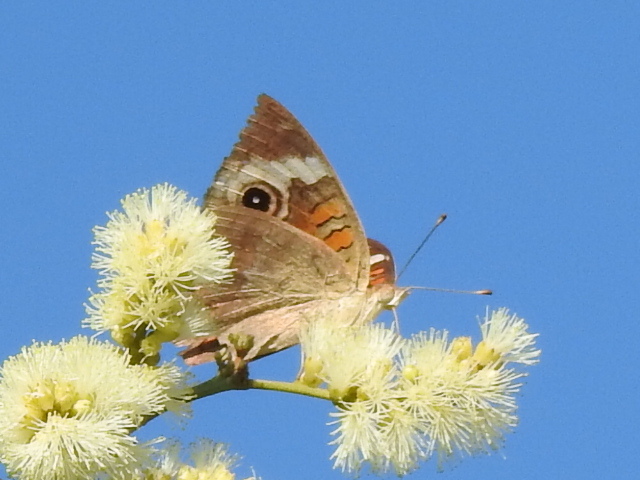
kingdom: Animalia
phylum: Arthropoda
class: Insecta
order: Lepidoptera
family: Nymphalidae
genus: Junonia
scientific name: Junonia coenia
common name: Common buckeye
